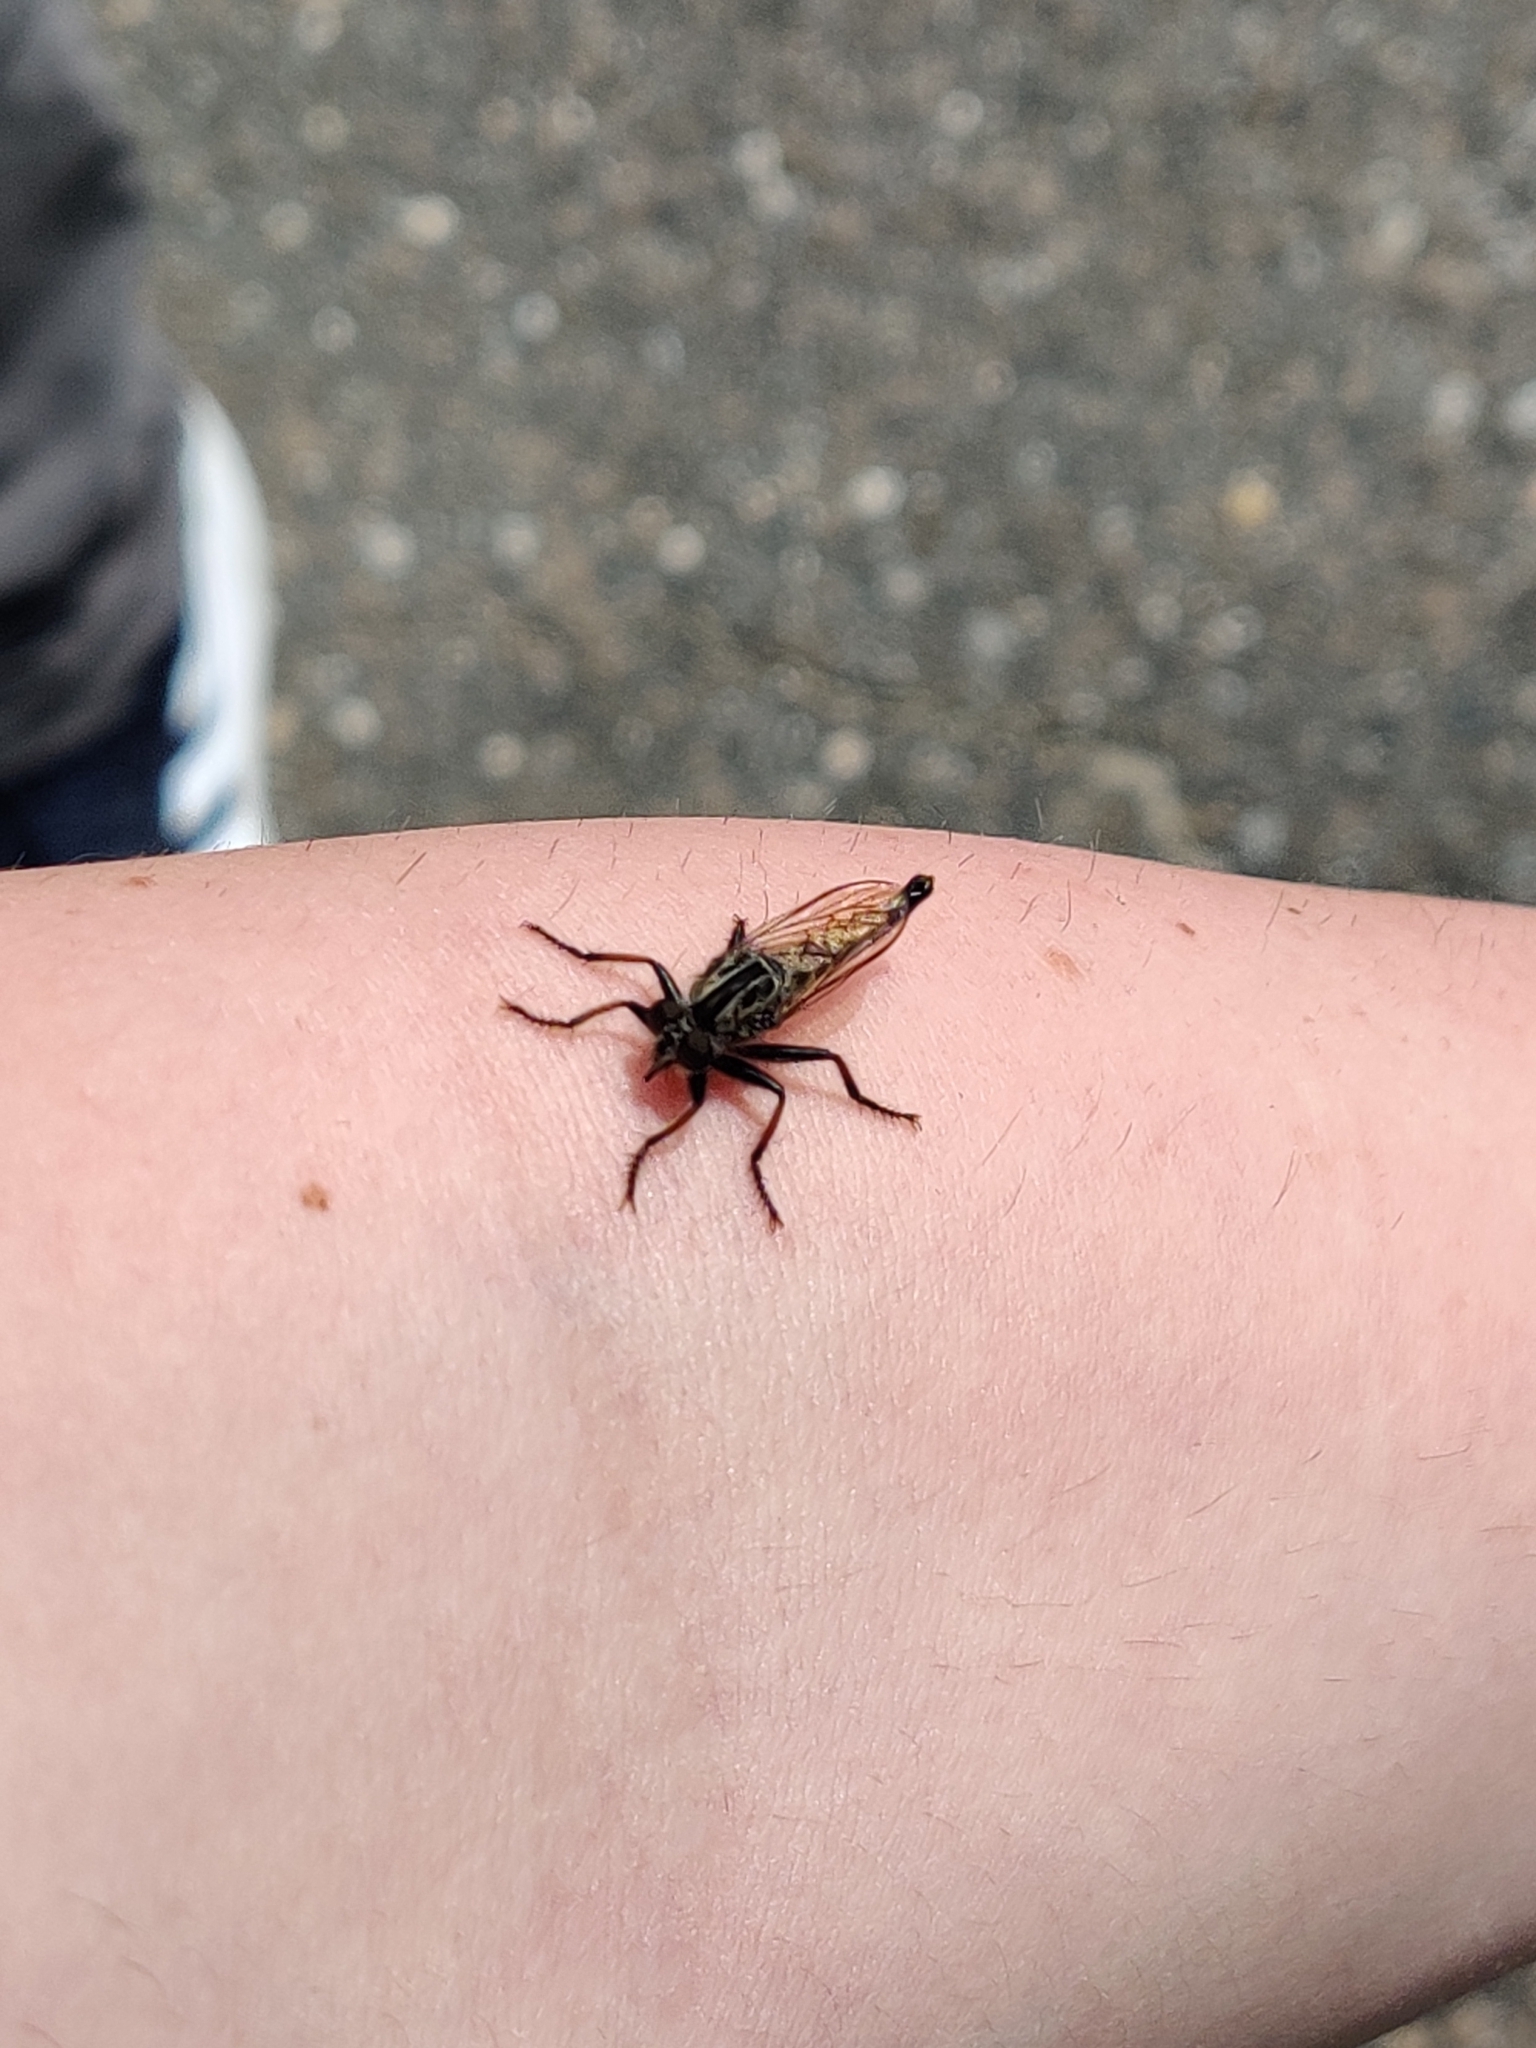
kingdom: Animalia
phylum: Arthropoda
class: Insecta
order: Diptera
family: Asilidae
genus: Efferia
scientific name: Efferia aestuans
